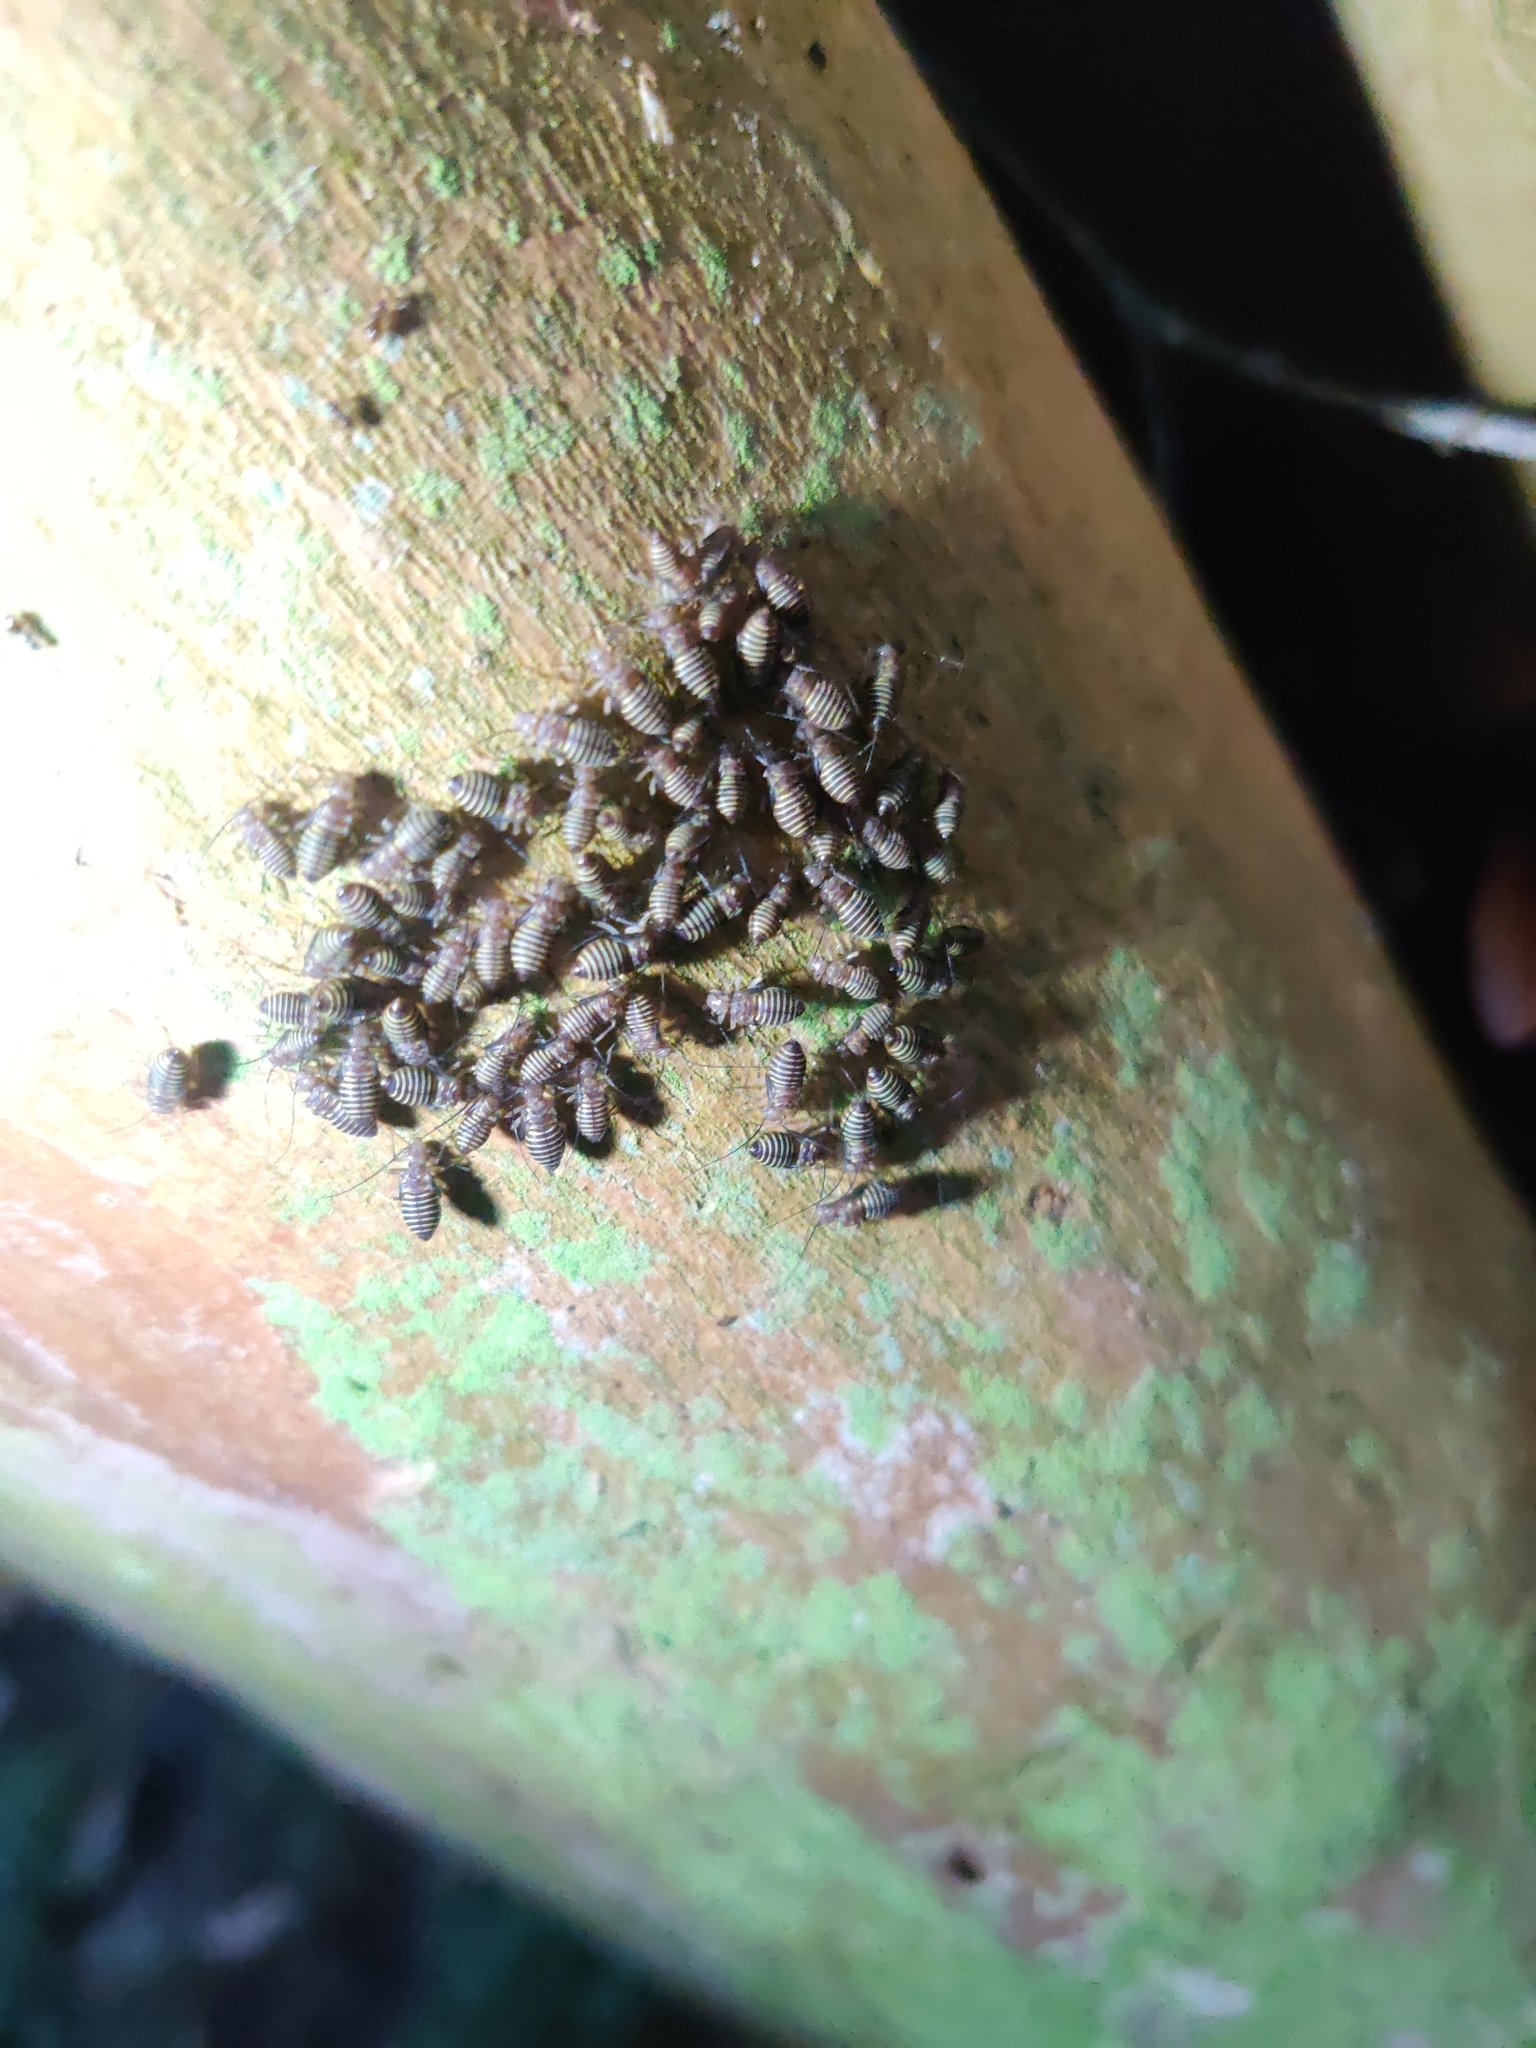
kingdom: Animalia
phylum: Arthropoda
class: Insecta
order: Psocodea
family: Psocidae
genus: Cerastipsocus
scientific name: Cerastipsocus venosus
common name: Tree cattle
